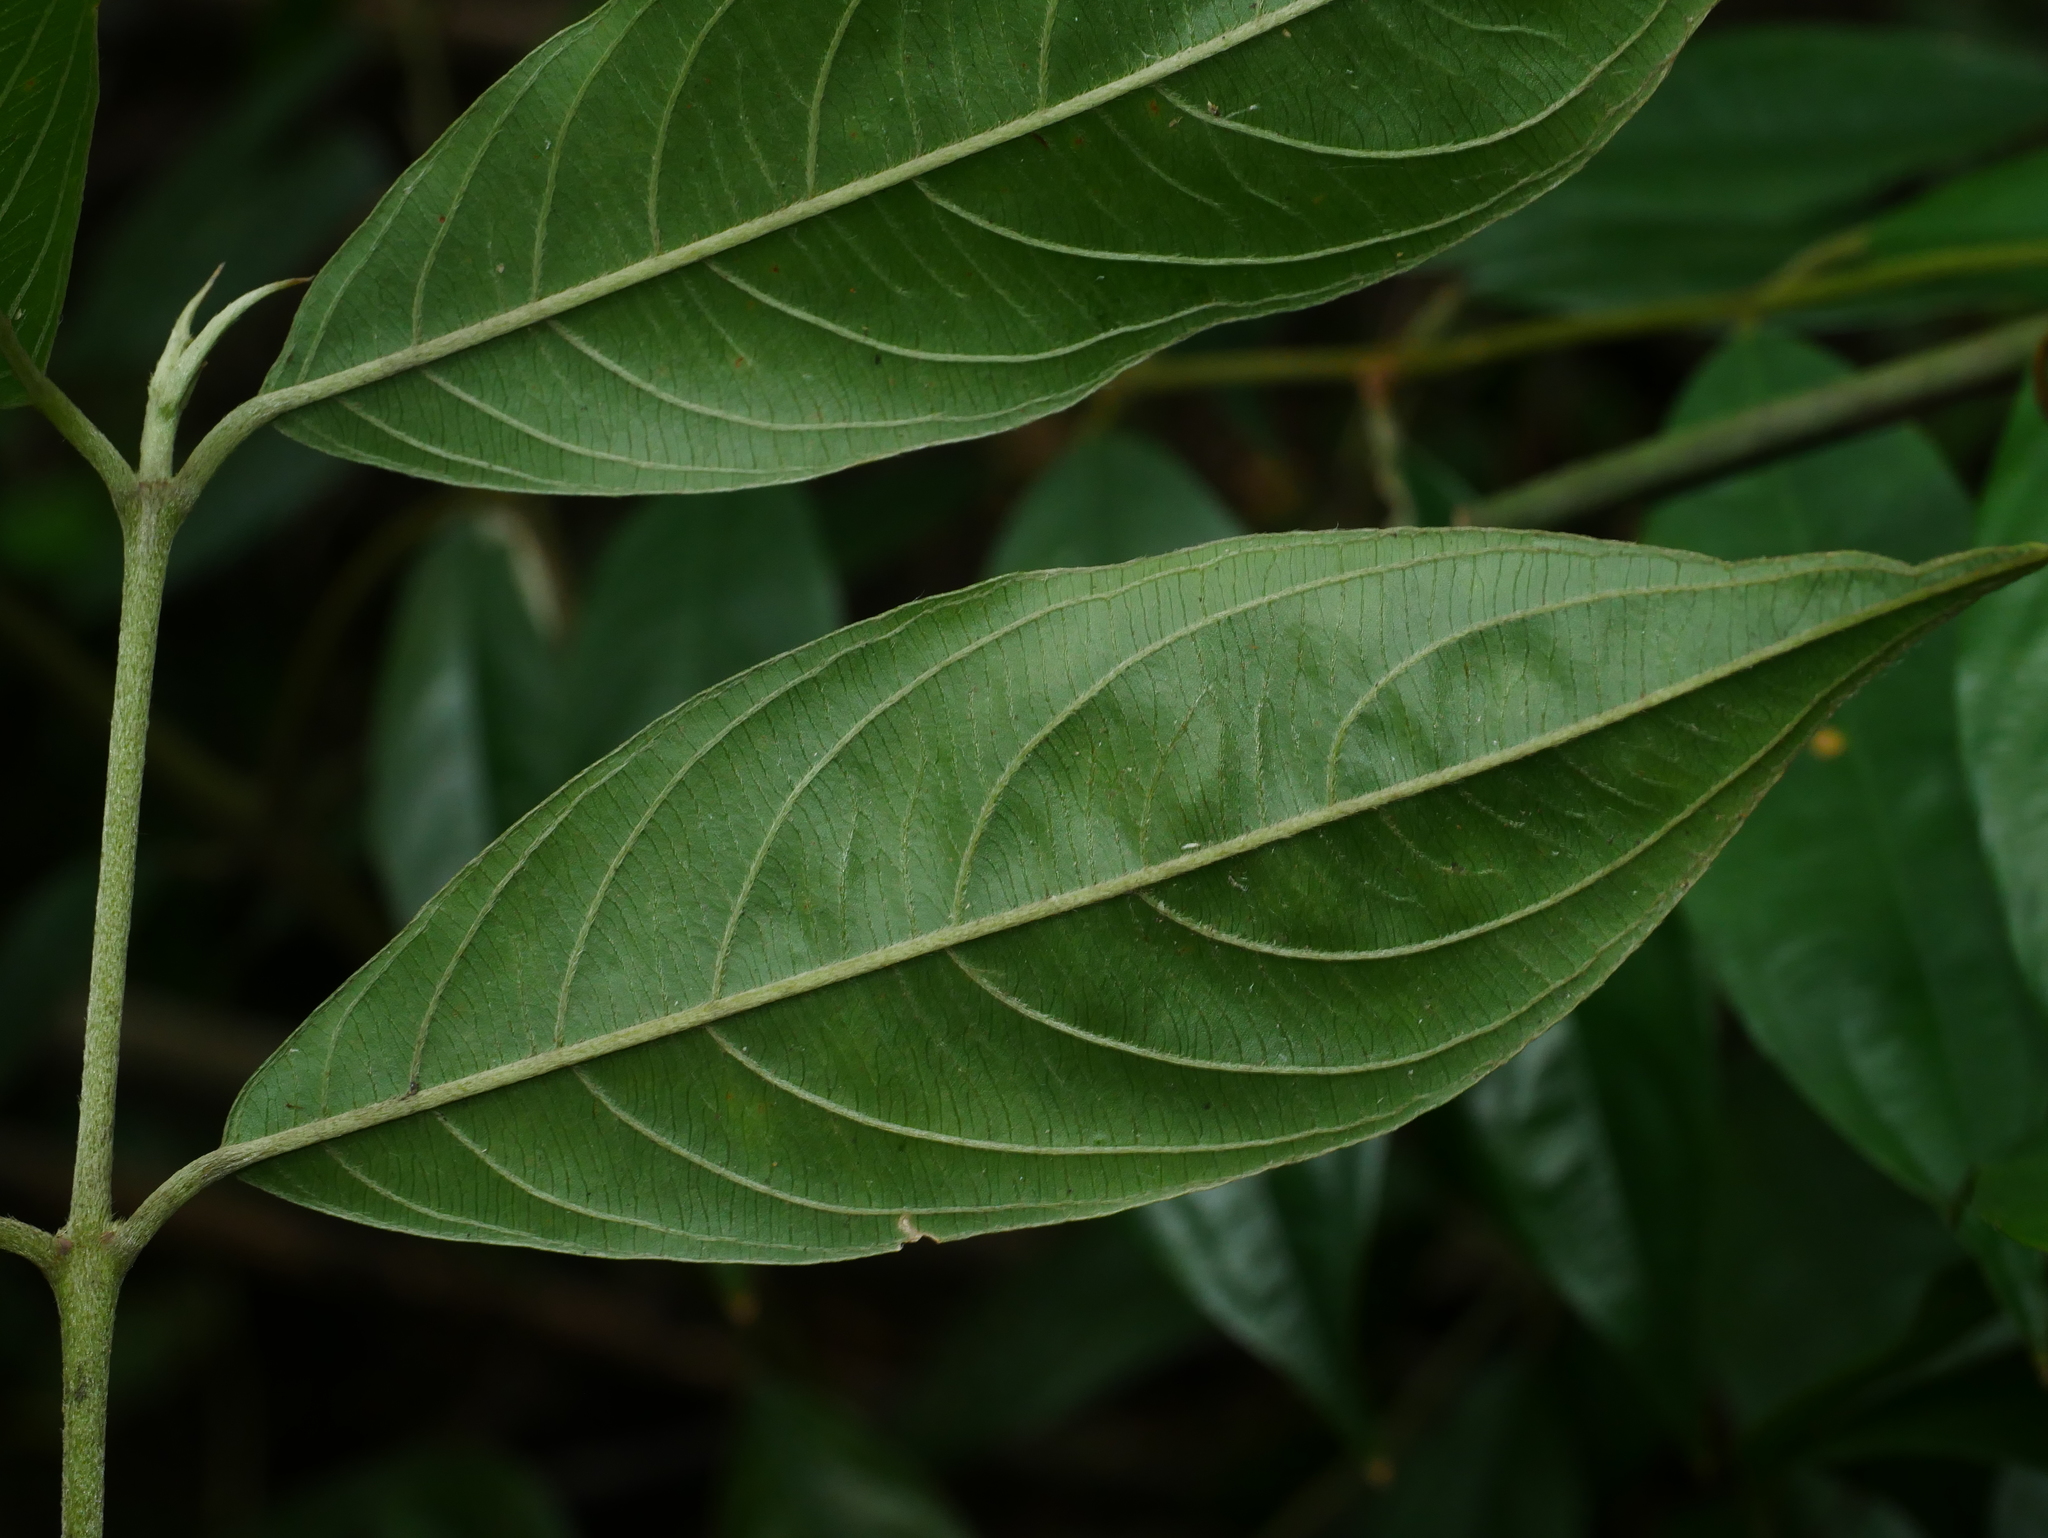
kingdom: Plantae
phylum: Tracheophyta
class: Magnoliopsida
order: Gentianales
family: Rubiaceae
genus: Lasianthus
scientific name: Lasianthus henryi
